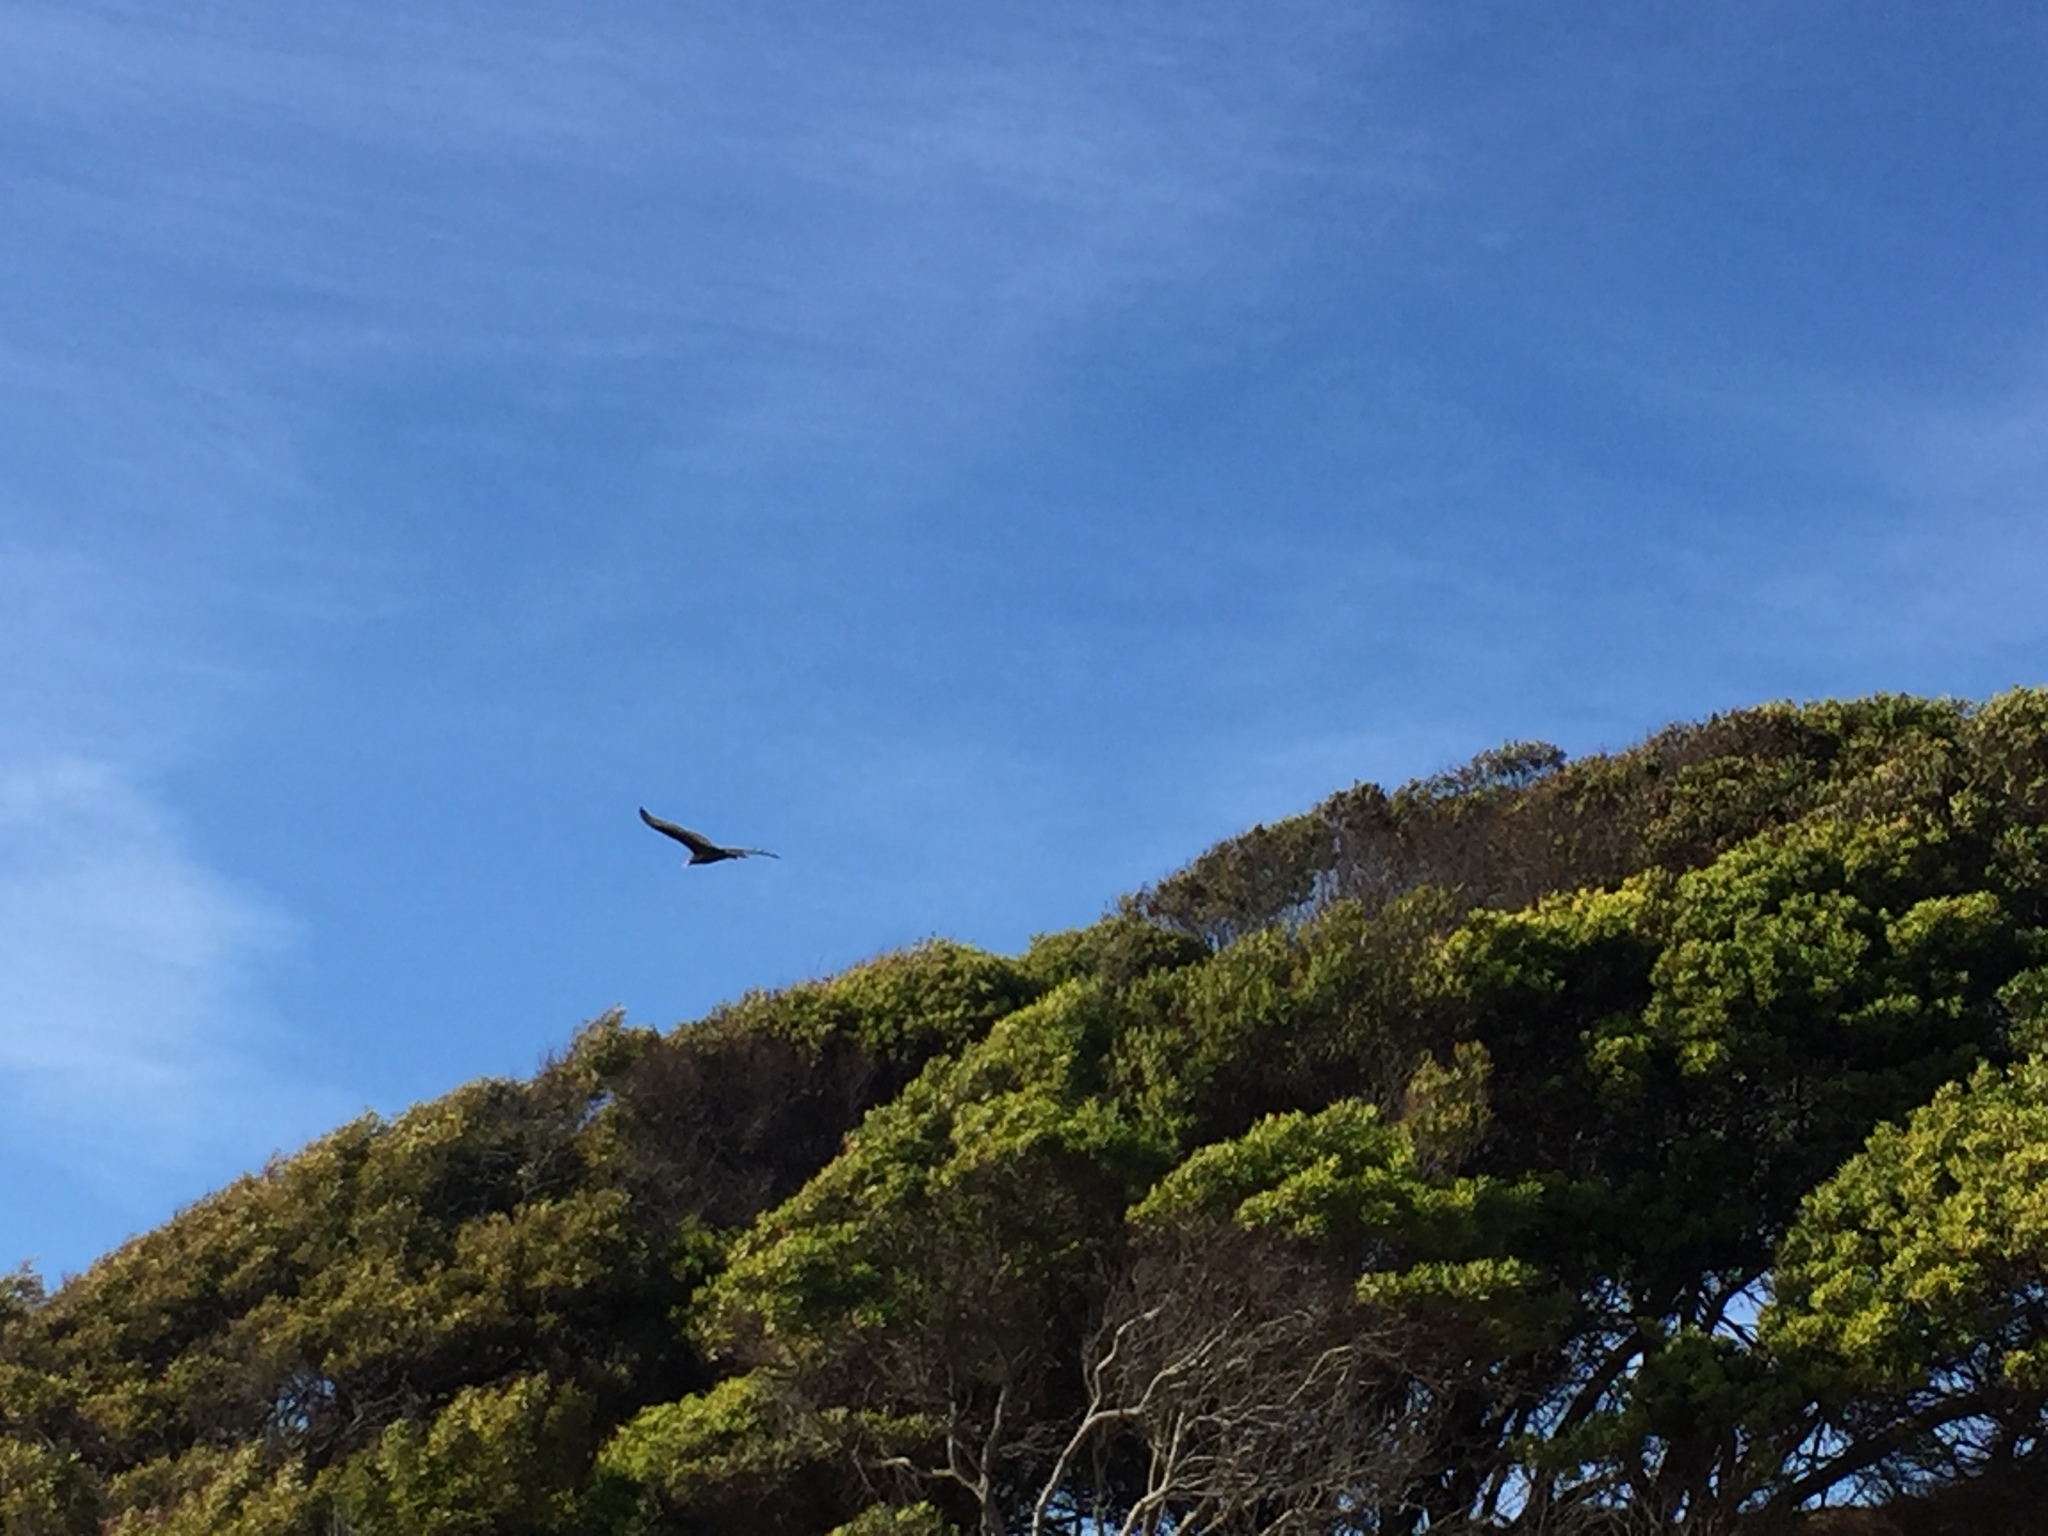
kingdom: Animalia
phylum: Chordata
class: Aves
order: Accipitriformes
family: Cathartidae
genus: Cathartes
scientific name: Cathartes aura
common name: Turkey vulture
